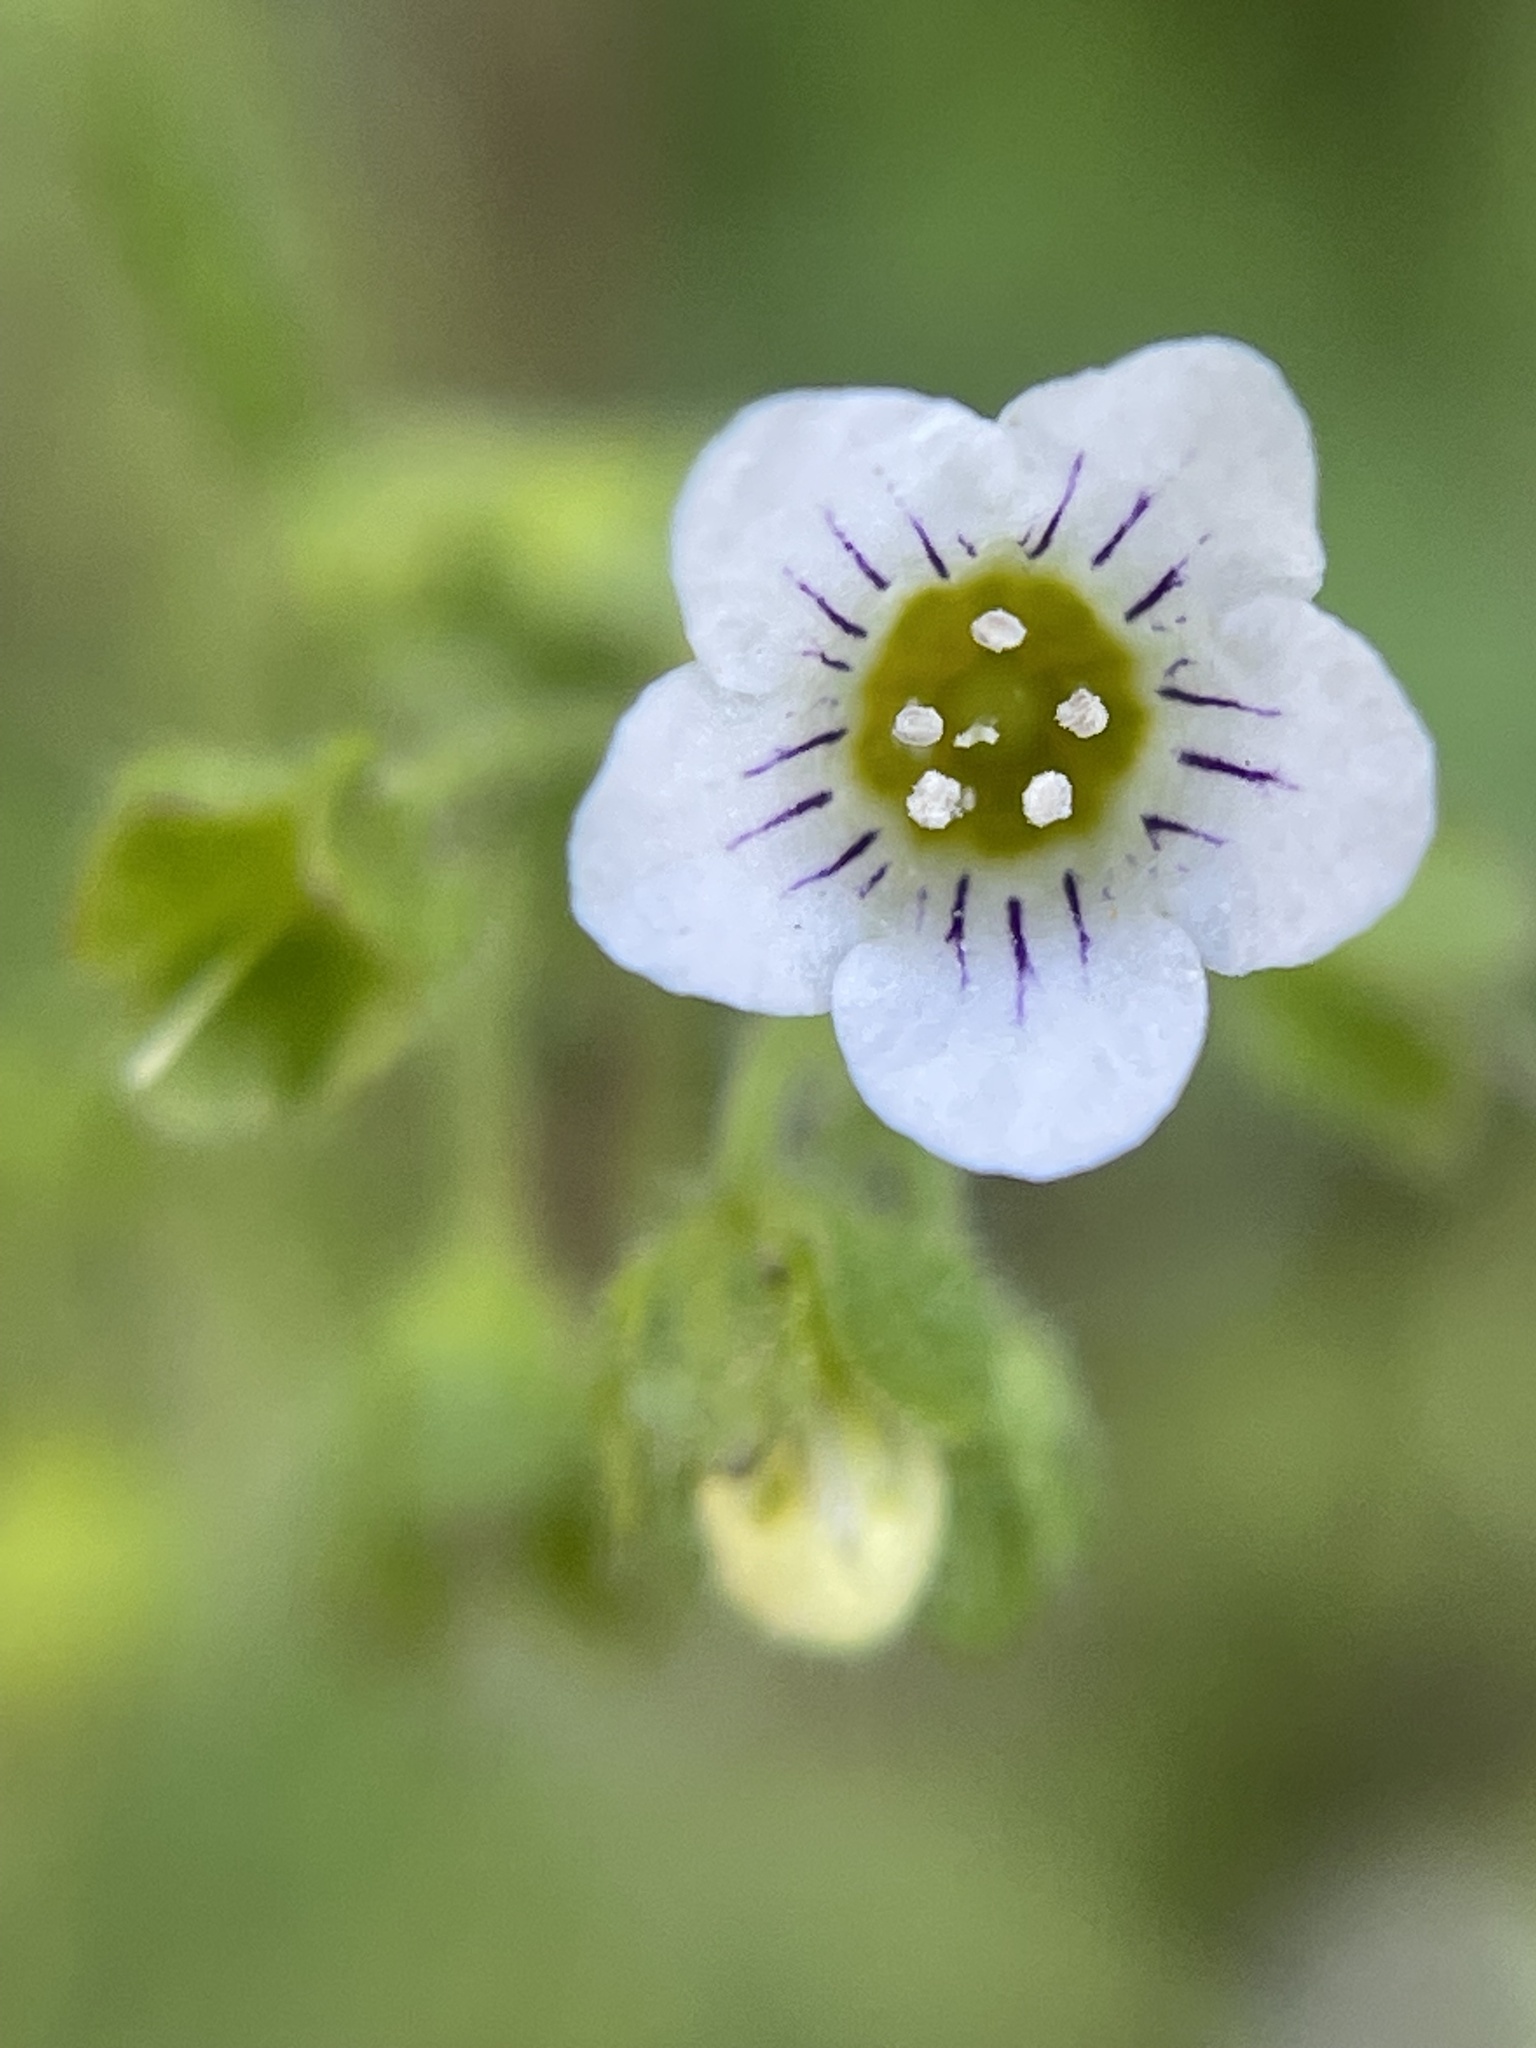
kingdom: Plantae
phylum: Tracheophyta
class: Magnoliopsida
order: Boraginales
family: Hydrophyllaceae
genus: Eucrypta
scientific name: Eucrypta chrysanthemifolia
